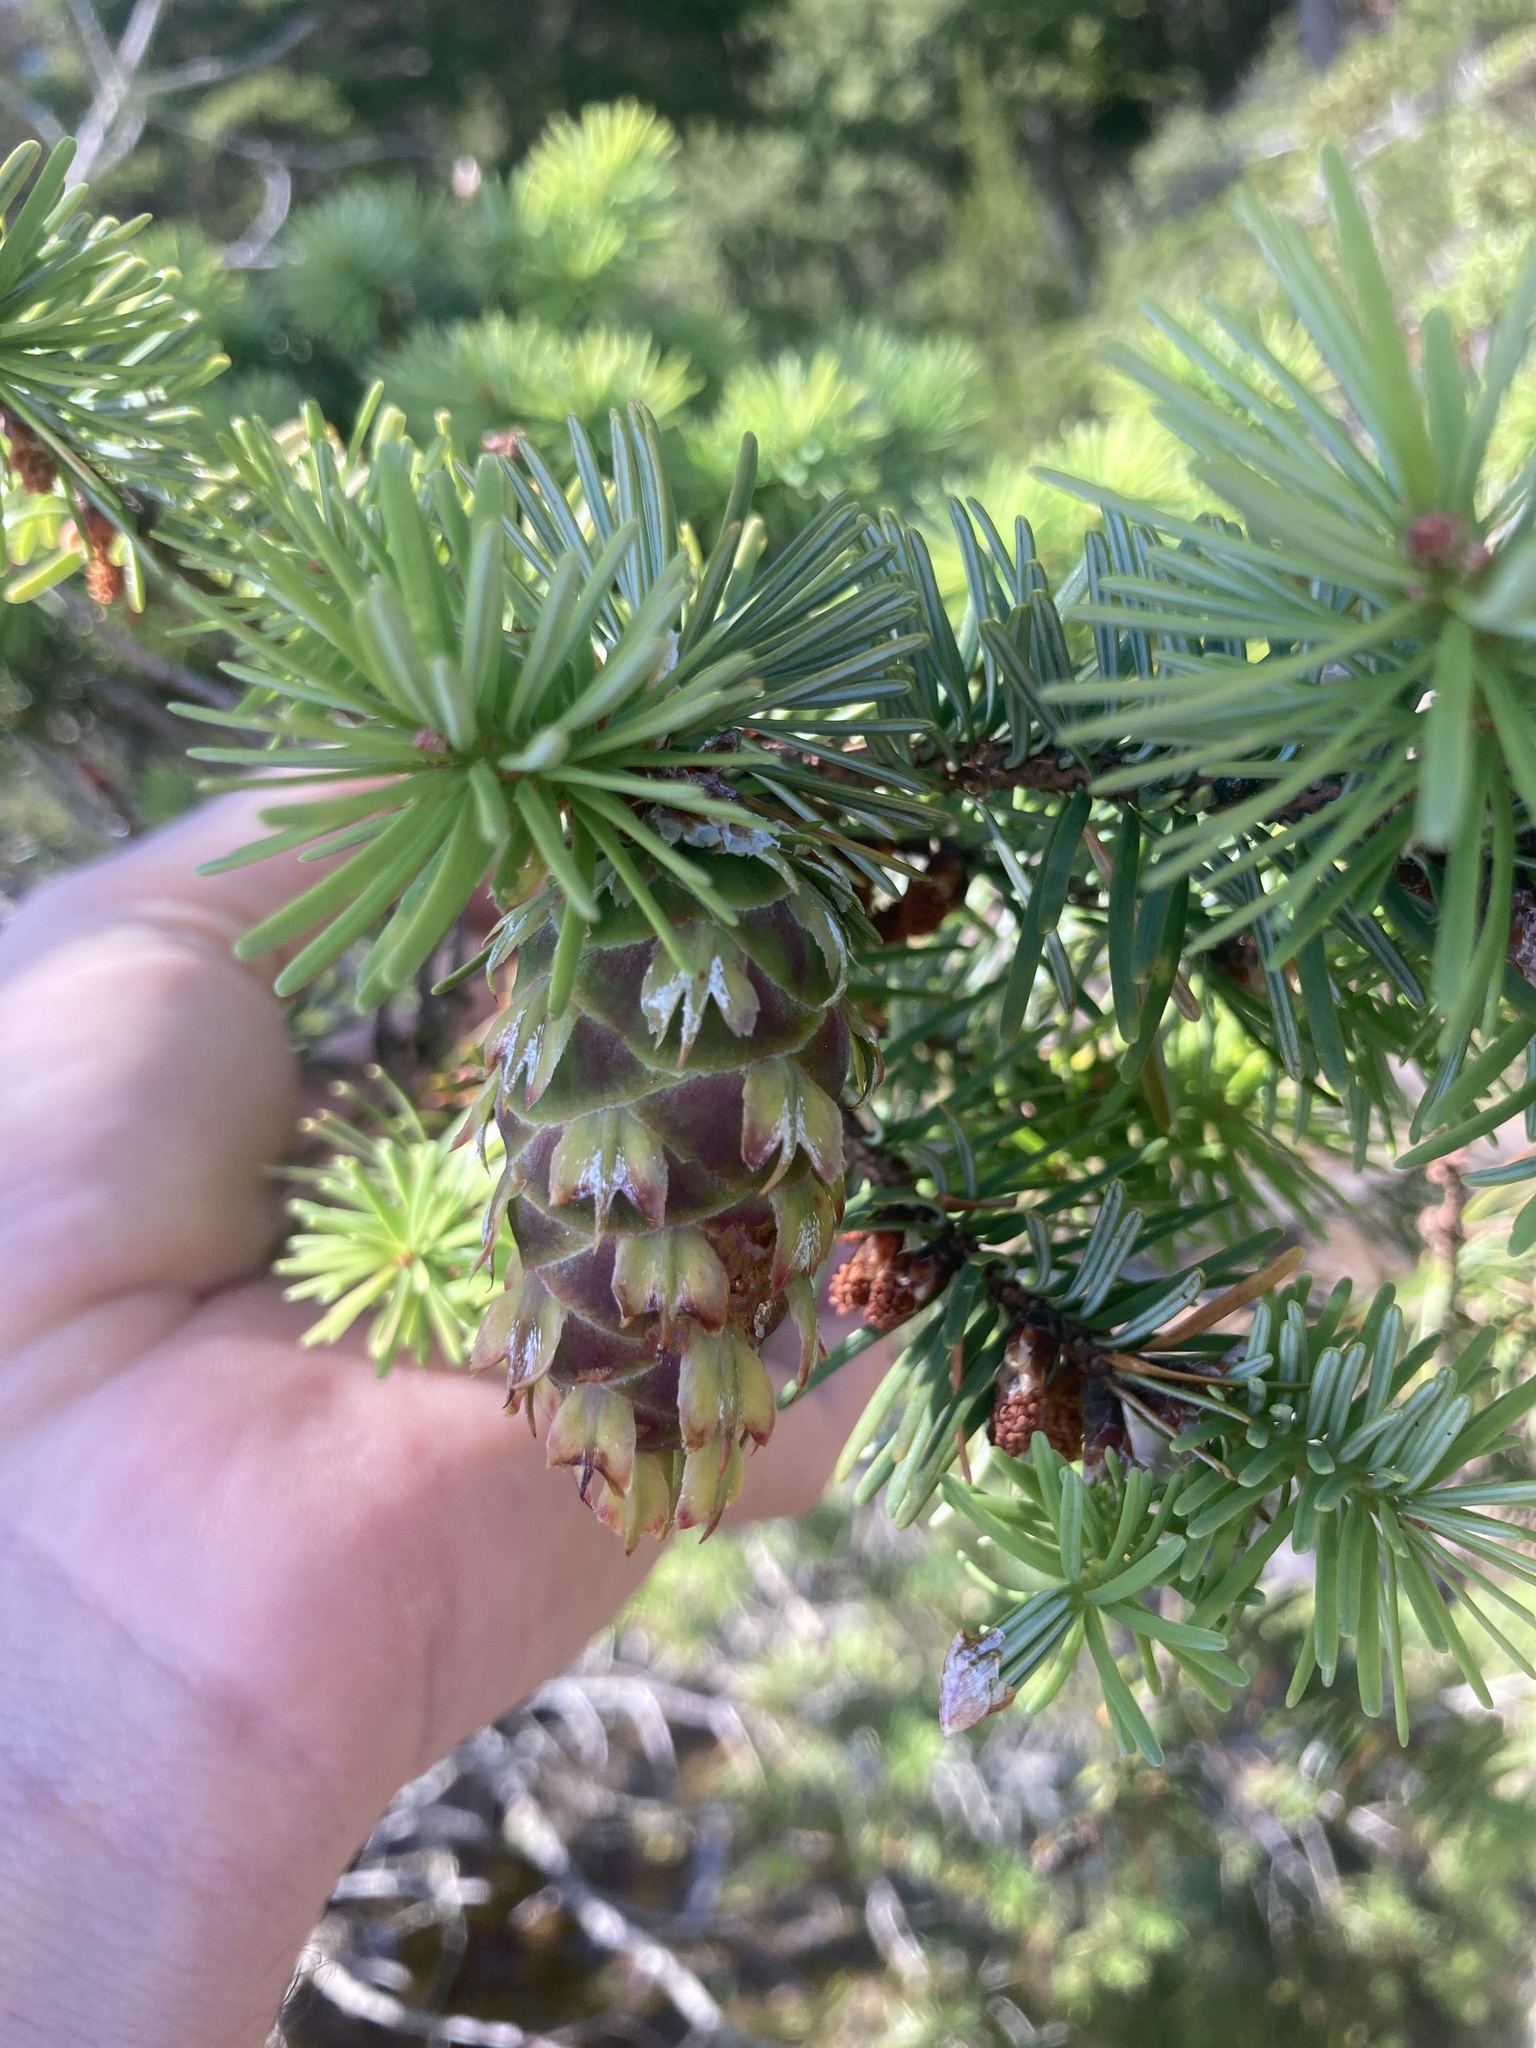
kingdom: Plantae
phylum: Tracheophyta
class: Pinopsida
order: Pinales
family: Pinaceae
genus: Pseudotsuga
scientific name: Pseudotsuga menziesii
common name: Douglas fir
